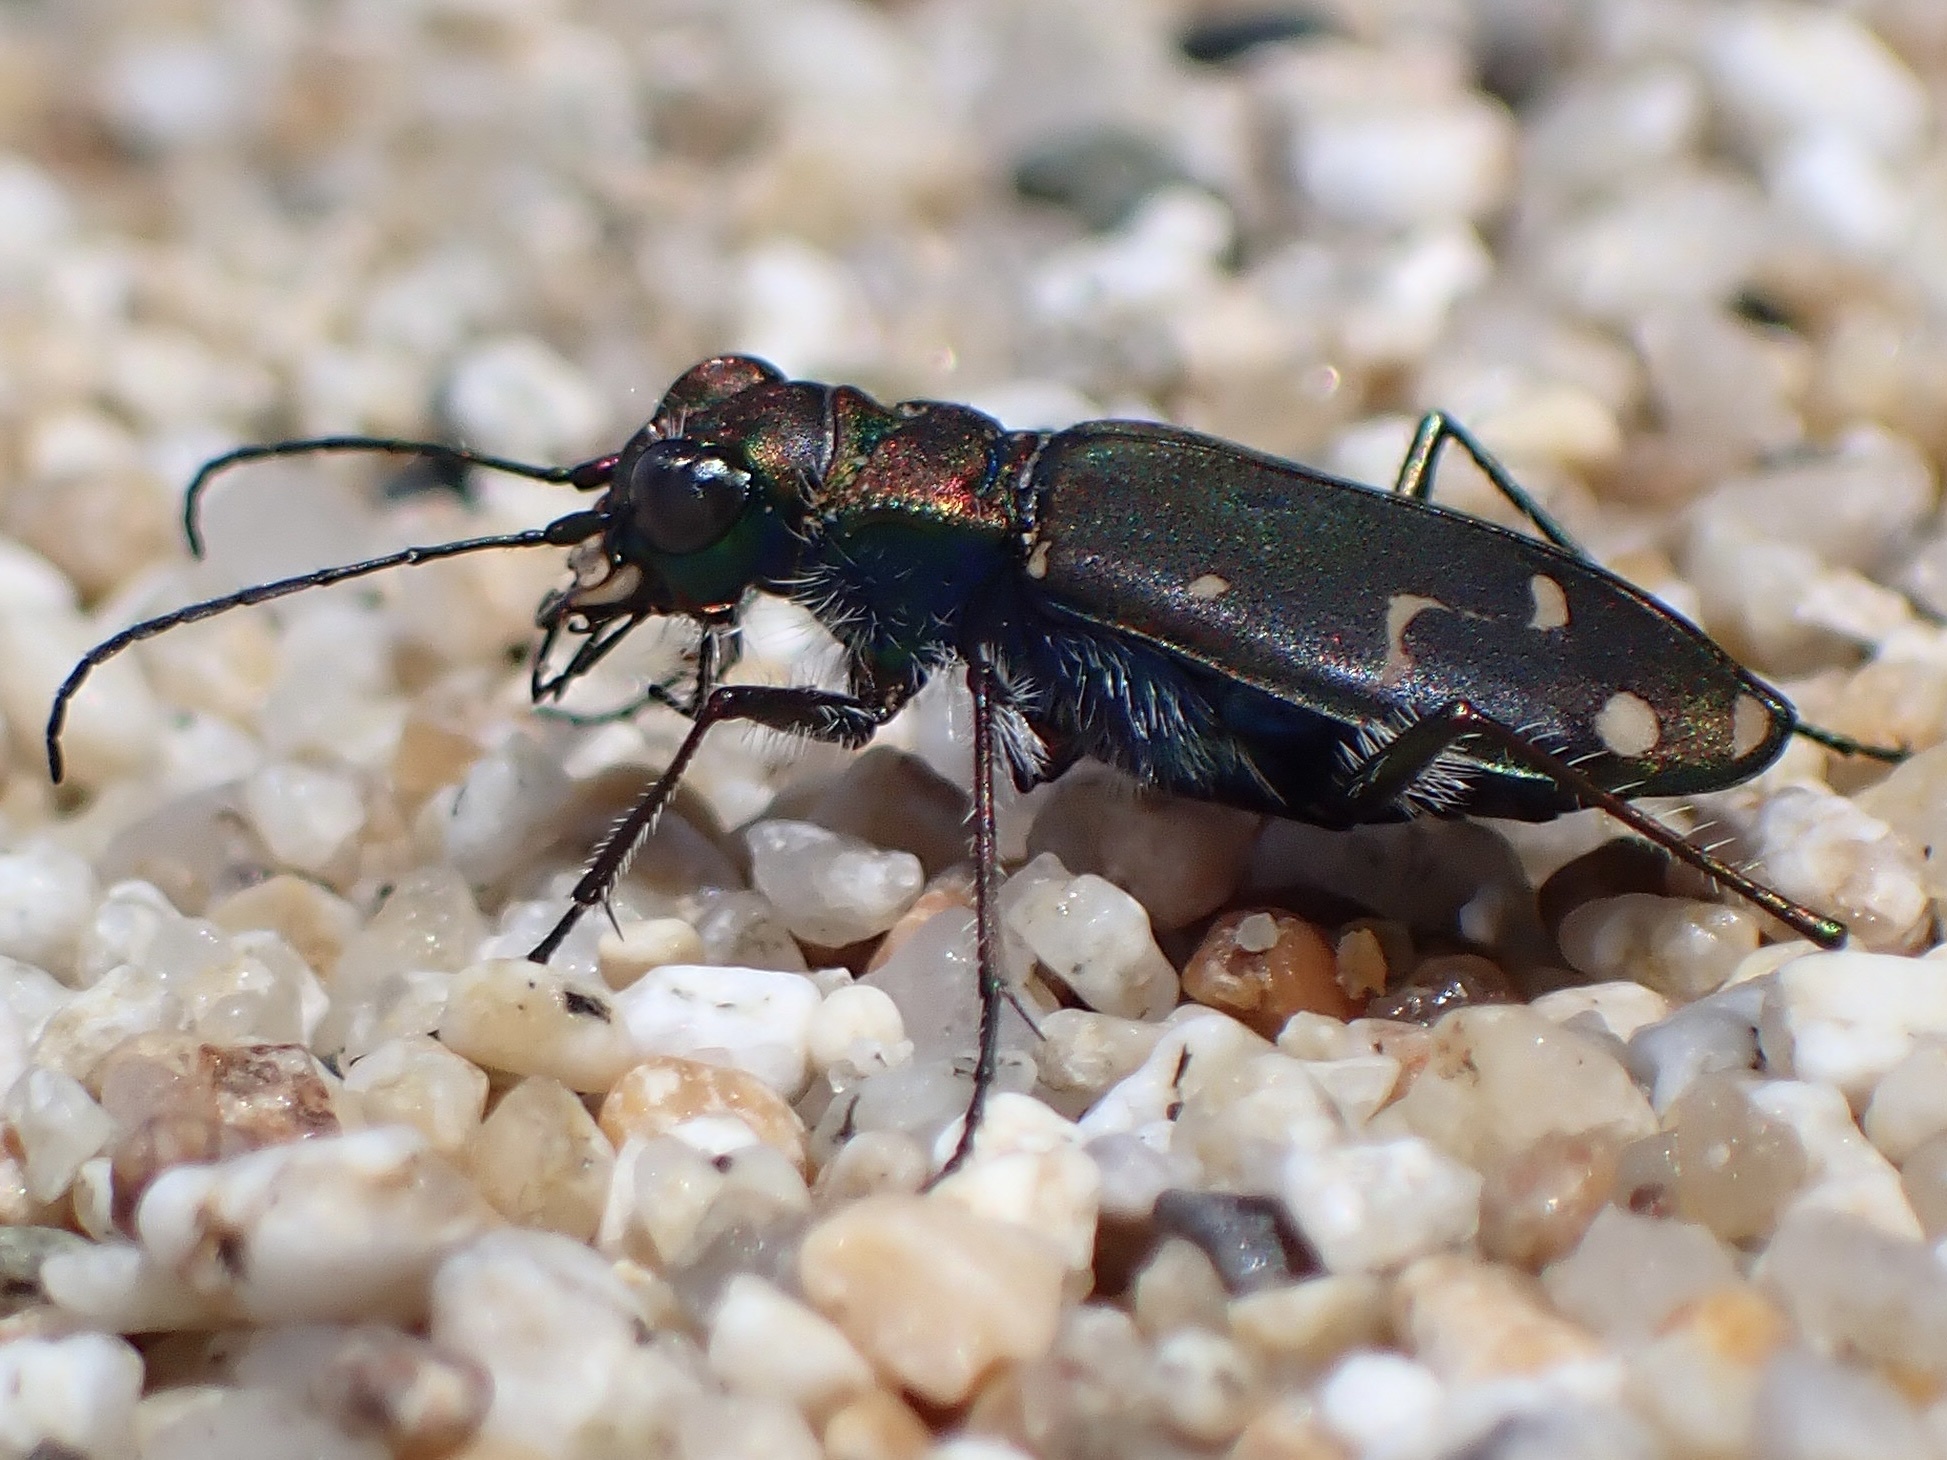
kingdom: Animalia
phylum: Arthropoda
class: Insecta
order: Coleoptera
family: Carabidae
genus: Cicindela
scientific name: Cicindela oregona
